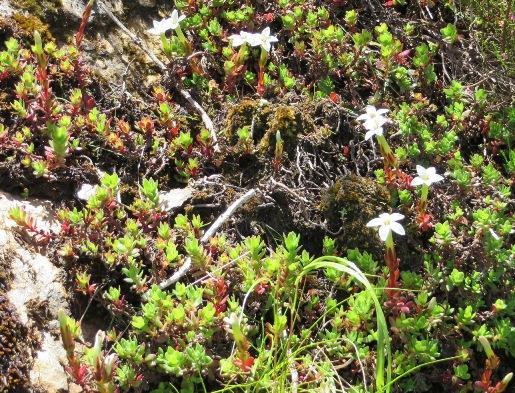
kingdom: Plantae
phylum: Tracheophyta
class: Magnoliopsida
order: Saxifragales
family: Crassulaceae
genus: Crassula
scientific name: Crassula obtusa
